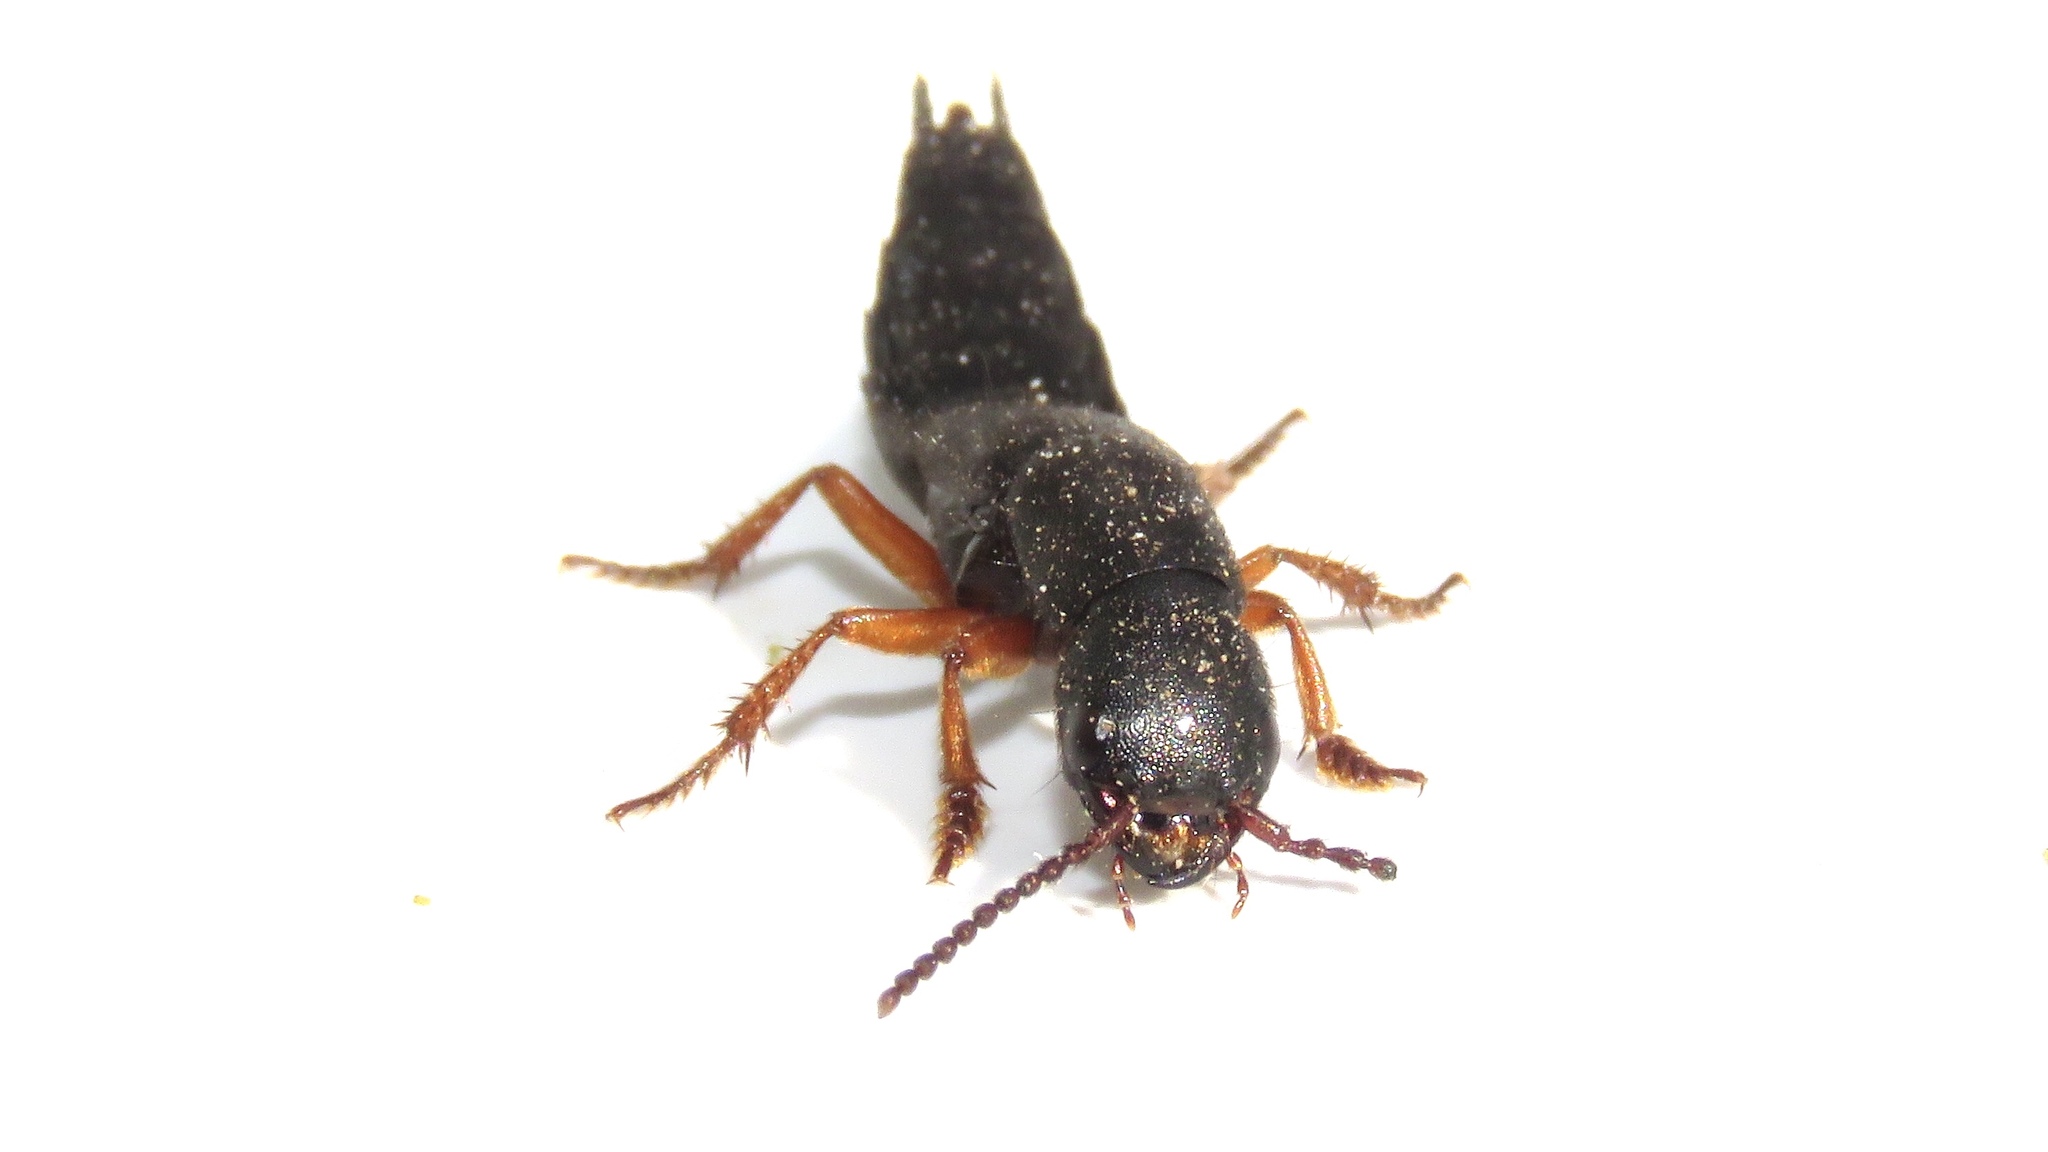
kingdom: Animalia
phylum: Arthropoda
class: Insecta
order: Coleoptera
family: Staphylinidae
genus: Dinothenarus
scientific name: Dinothenarus badipes
